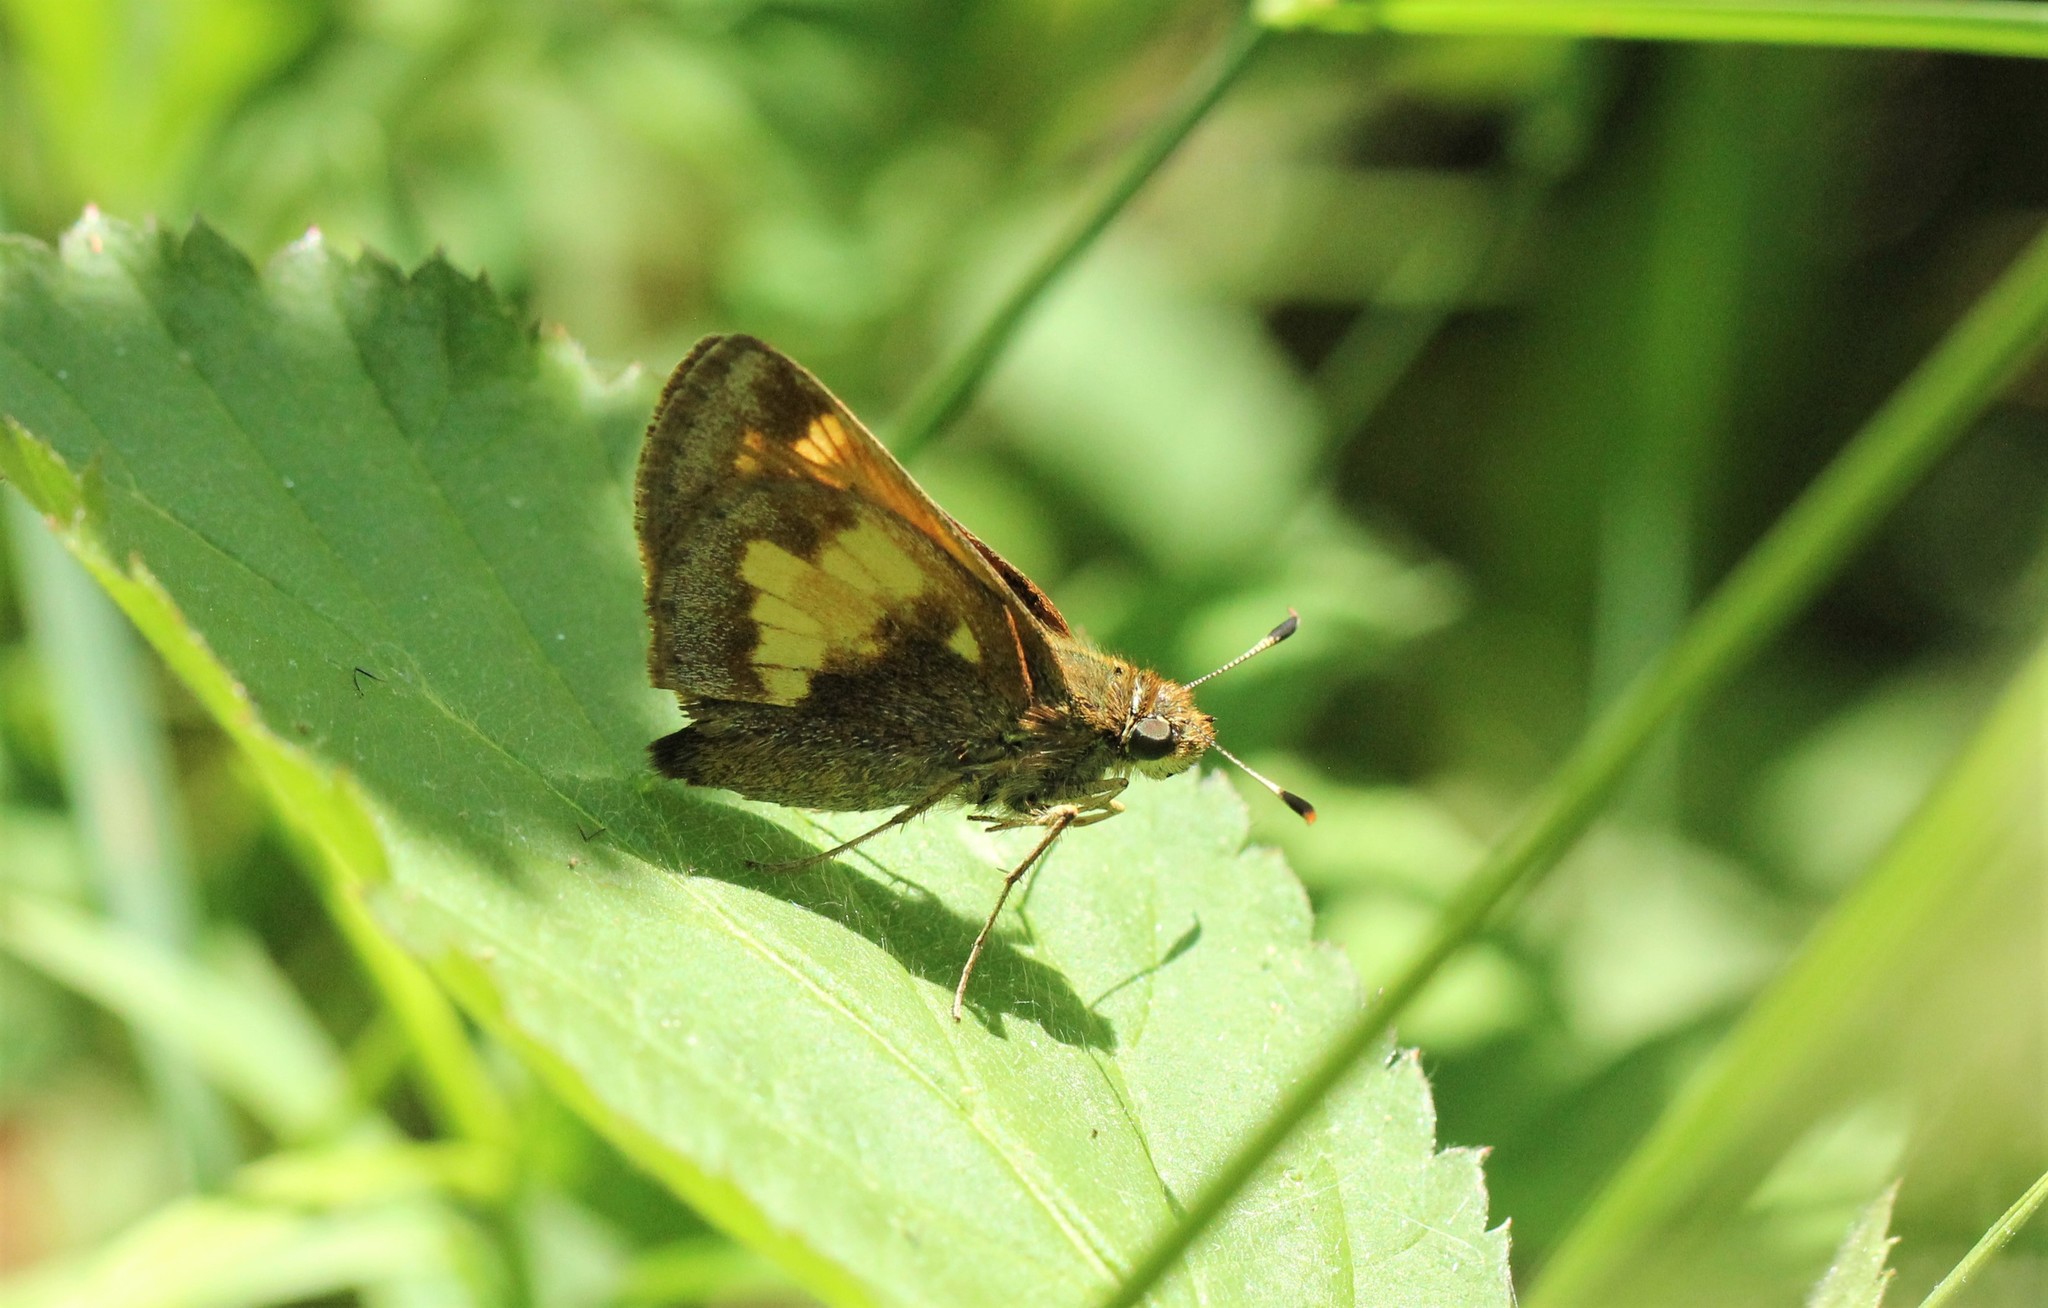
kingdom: Animalia
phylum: Arthropoda
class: Insecta
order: Lepidoptera
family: Hesperiidae
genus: Lon
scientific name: Lon hobomok
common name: Hobomok skipper
